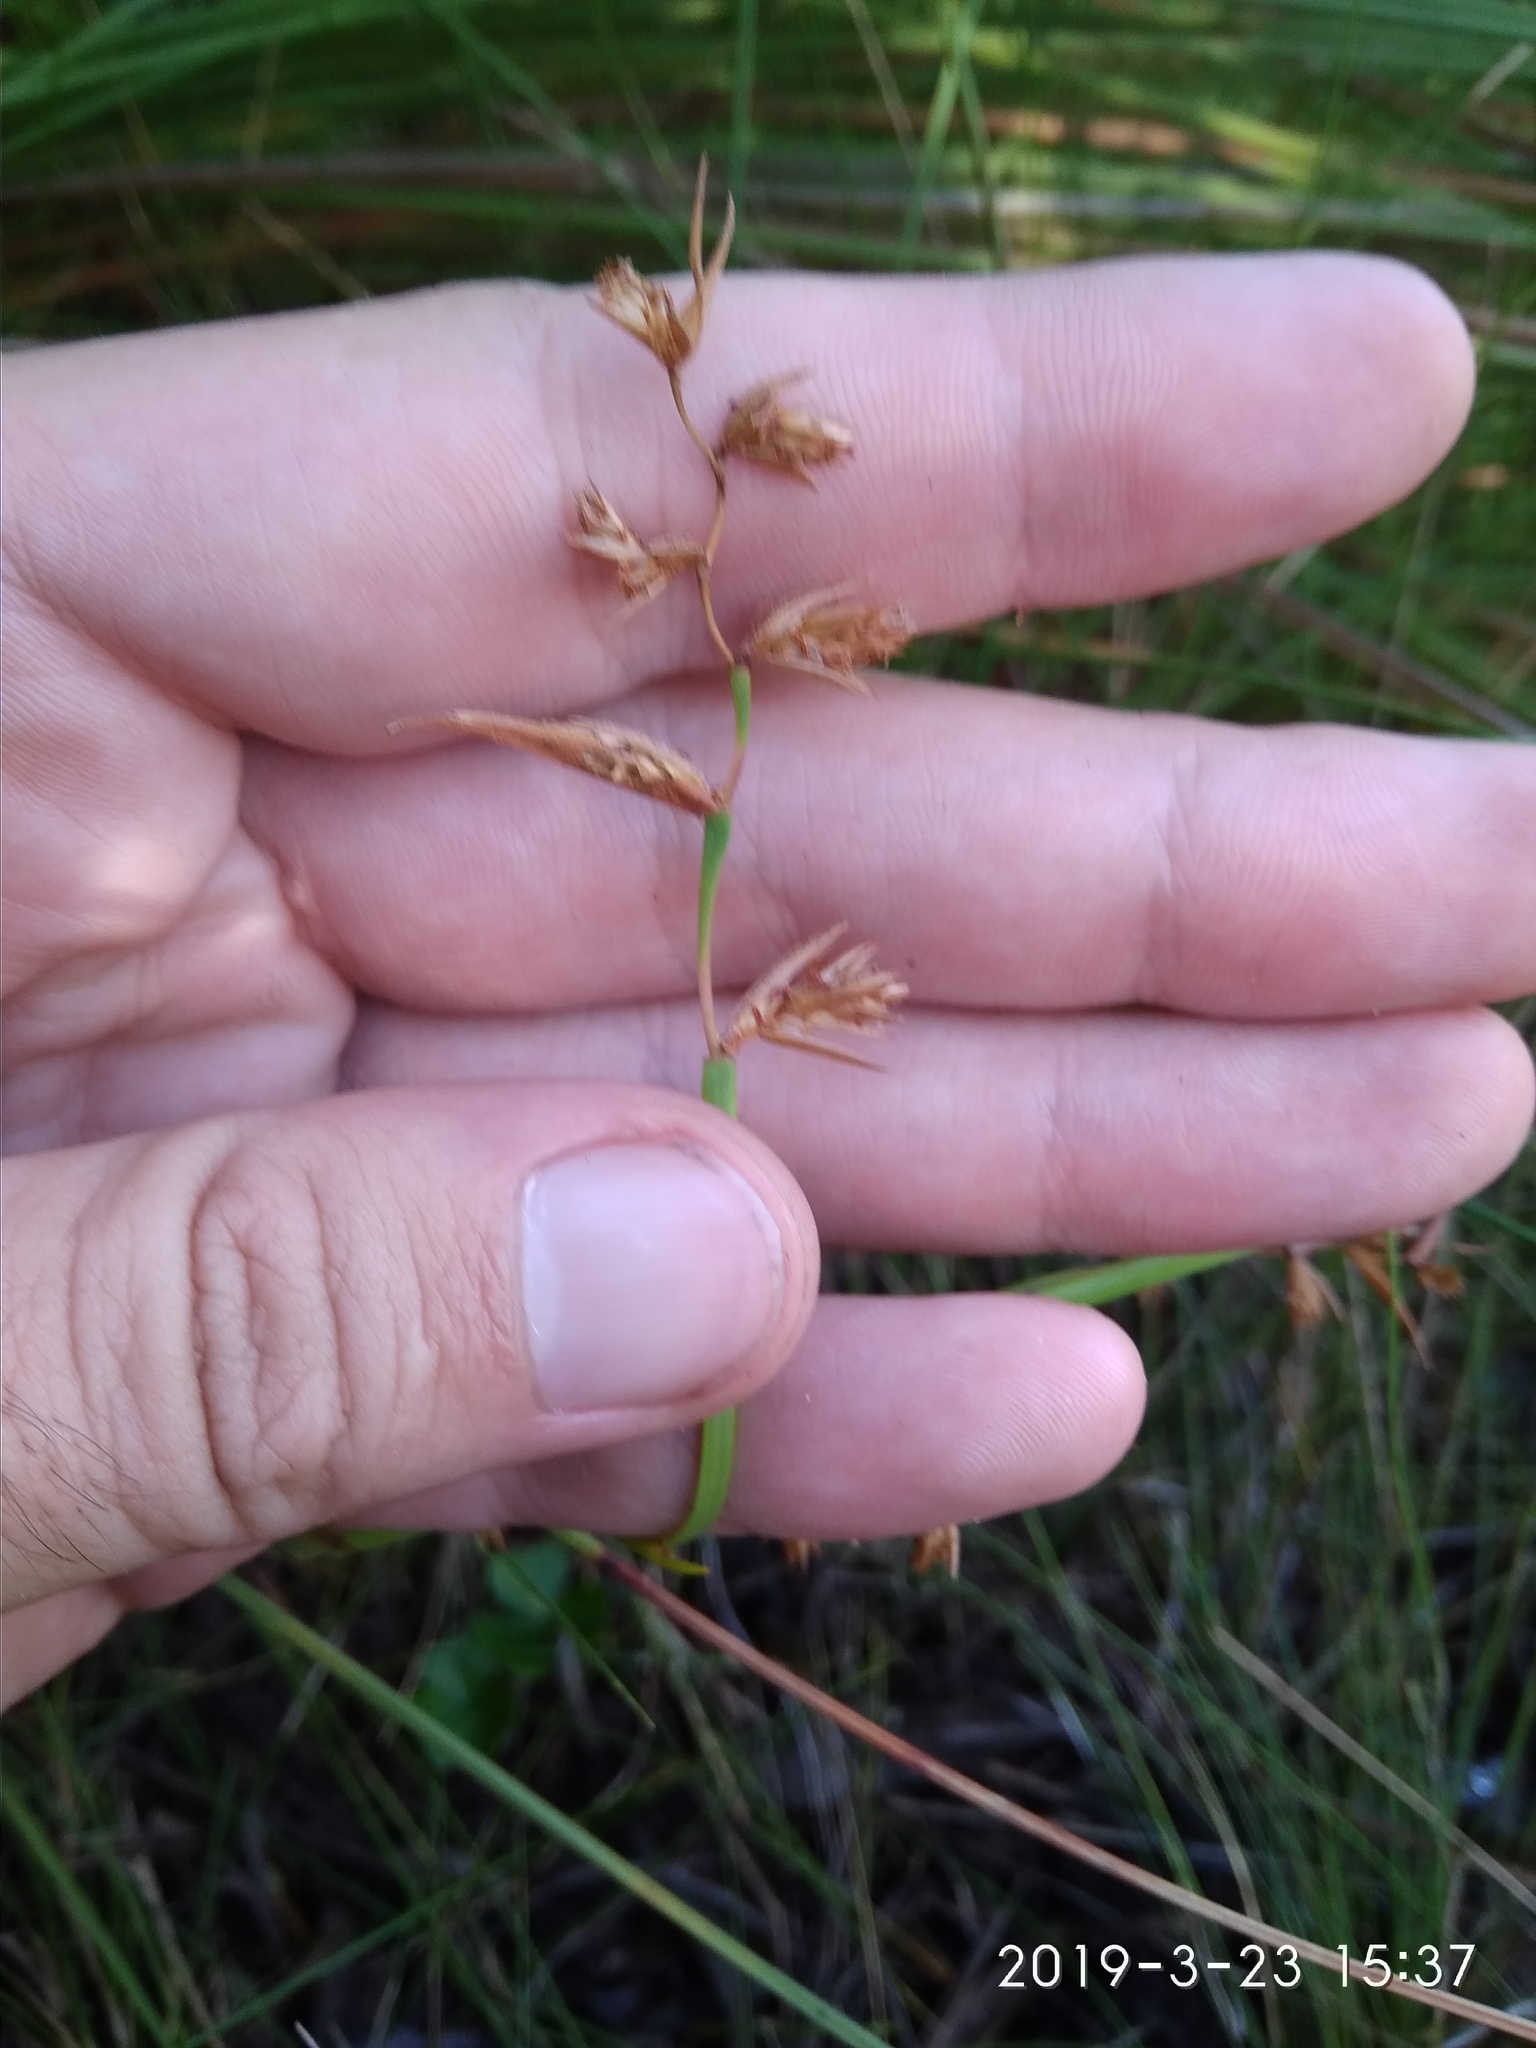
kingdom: Plantae
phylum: Tracheophyta
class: Liliopsida
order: Poales
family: Restionaceae
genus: Platycaulos
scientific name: Platycaulos cascadensis
